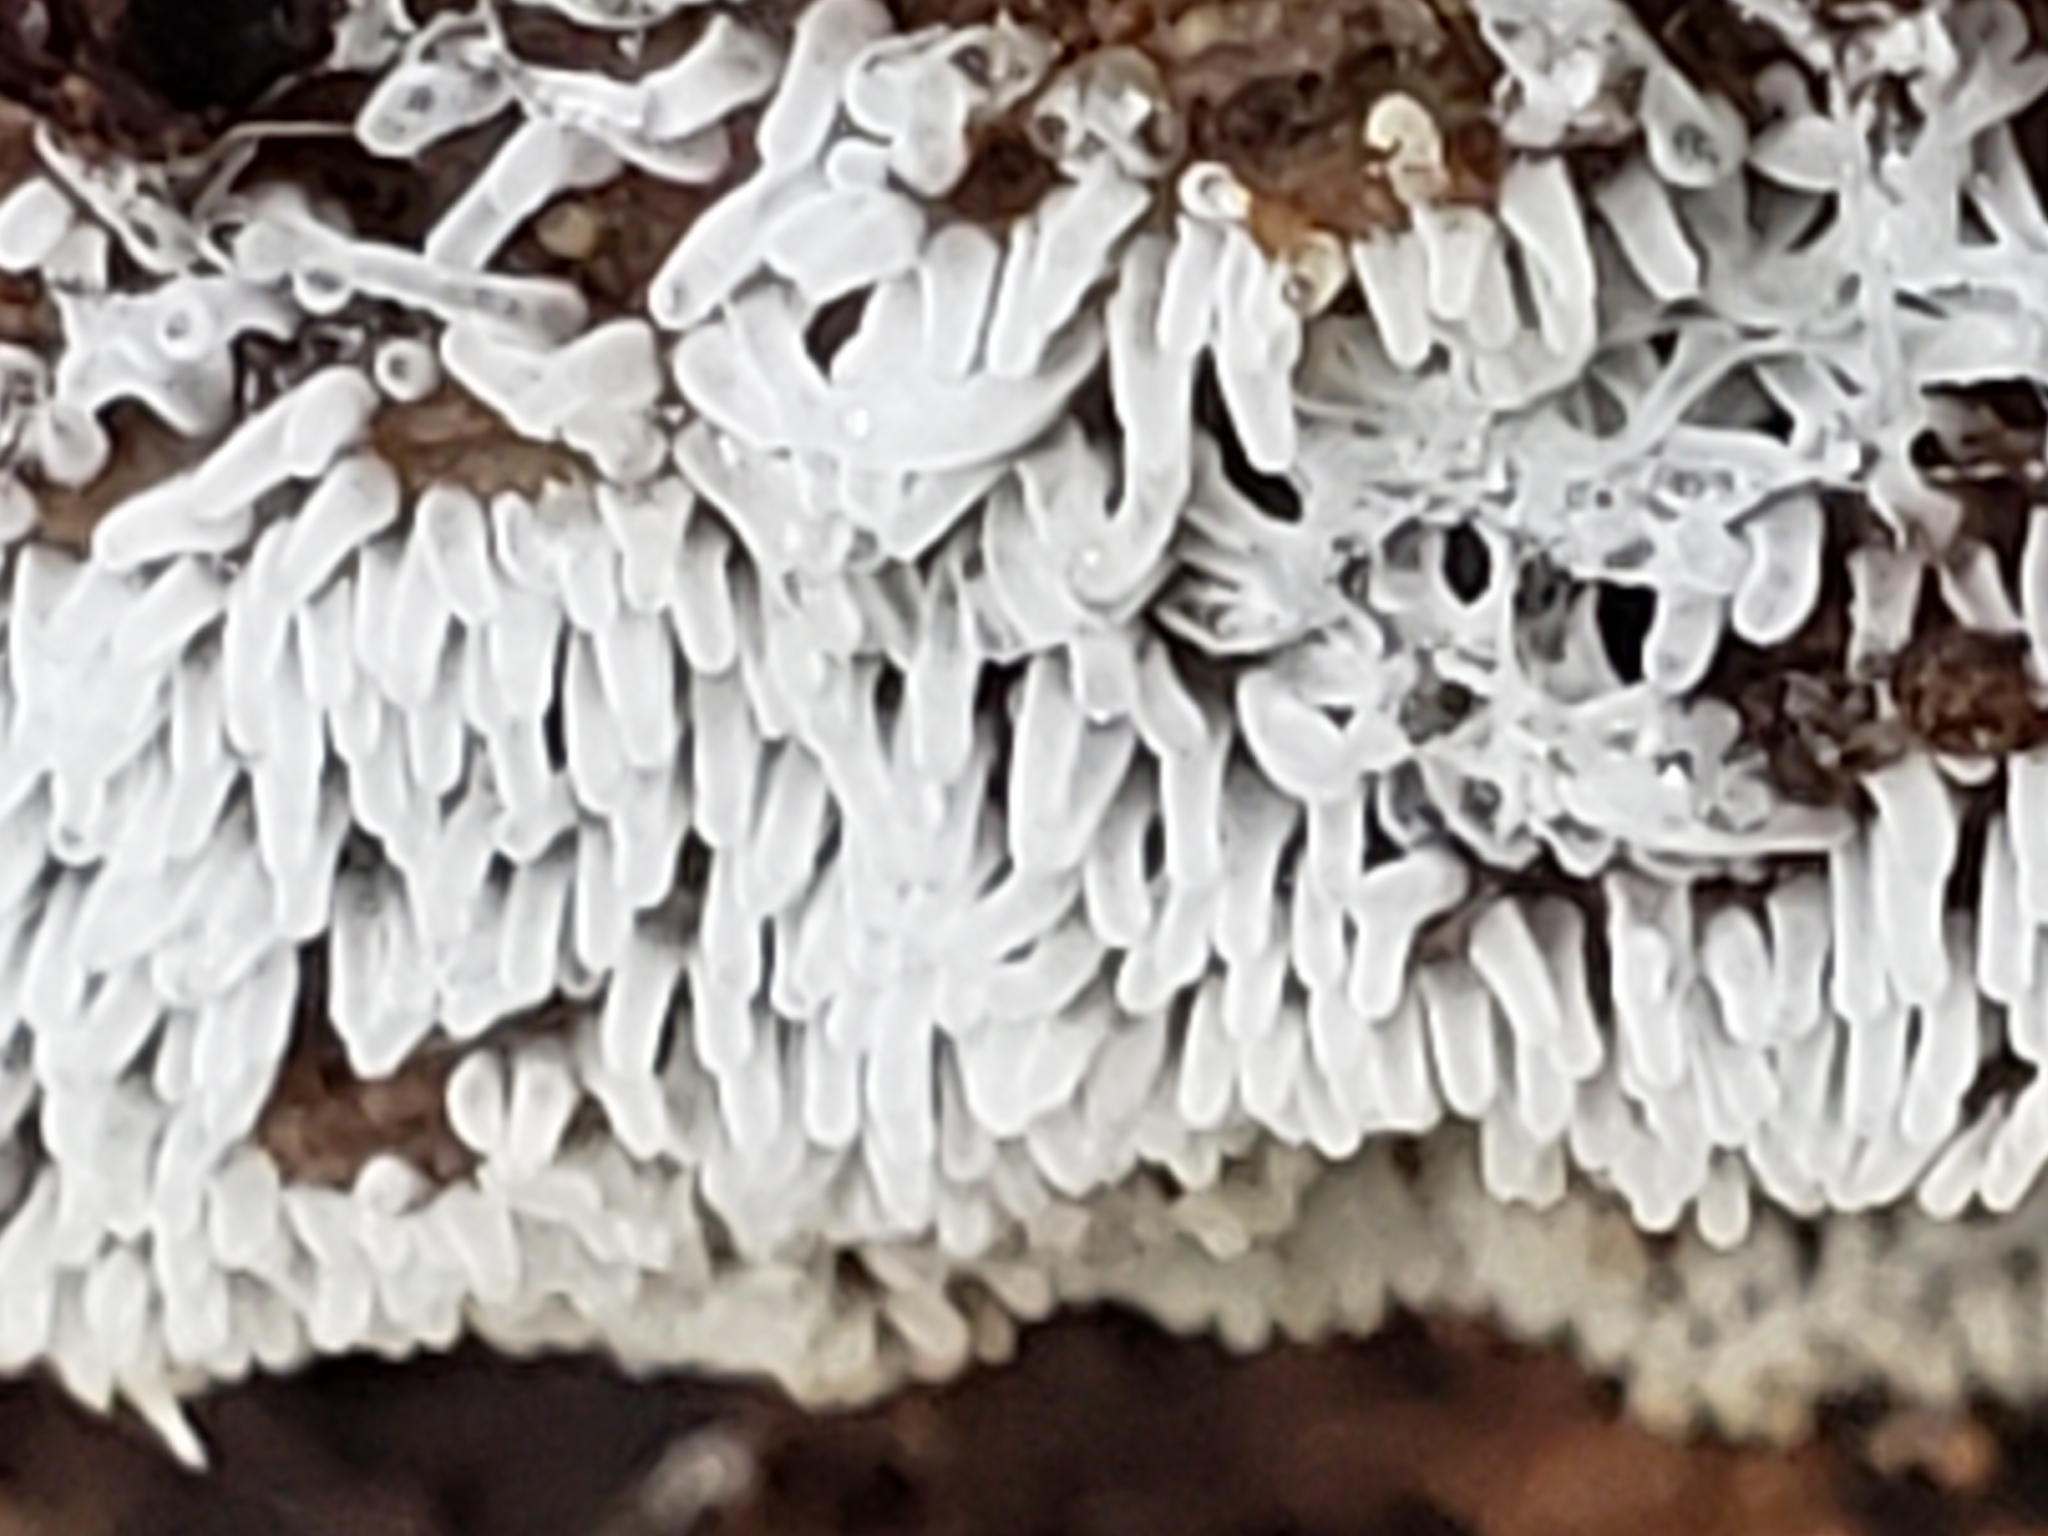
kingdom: Protozoa
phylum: Mycetozoa
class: Protosteliomycetes
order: Ceratiomyxales
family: Ceratiomyxaceae
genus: Ceratiomyxa
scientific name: Ceratiomyxa fruticulosa
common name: Honeycomb coral slime mold
